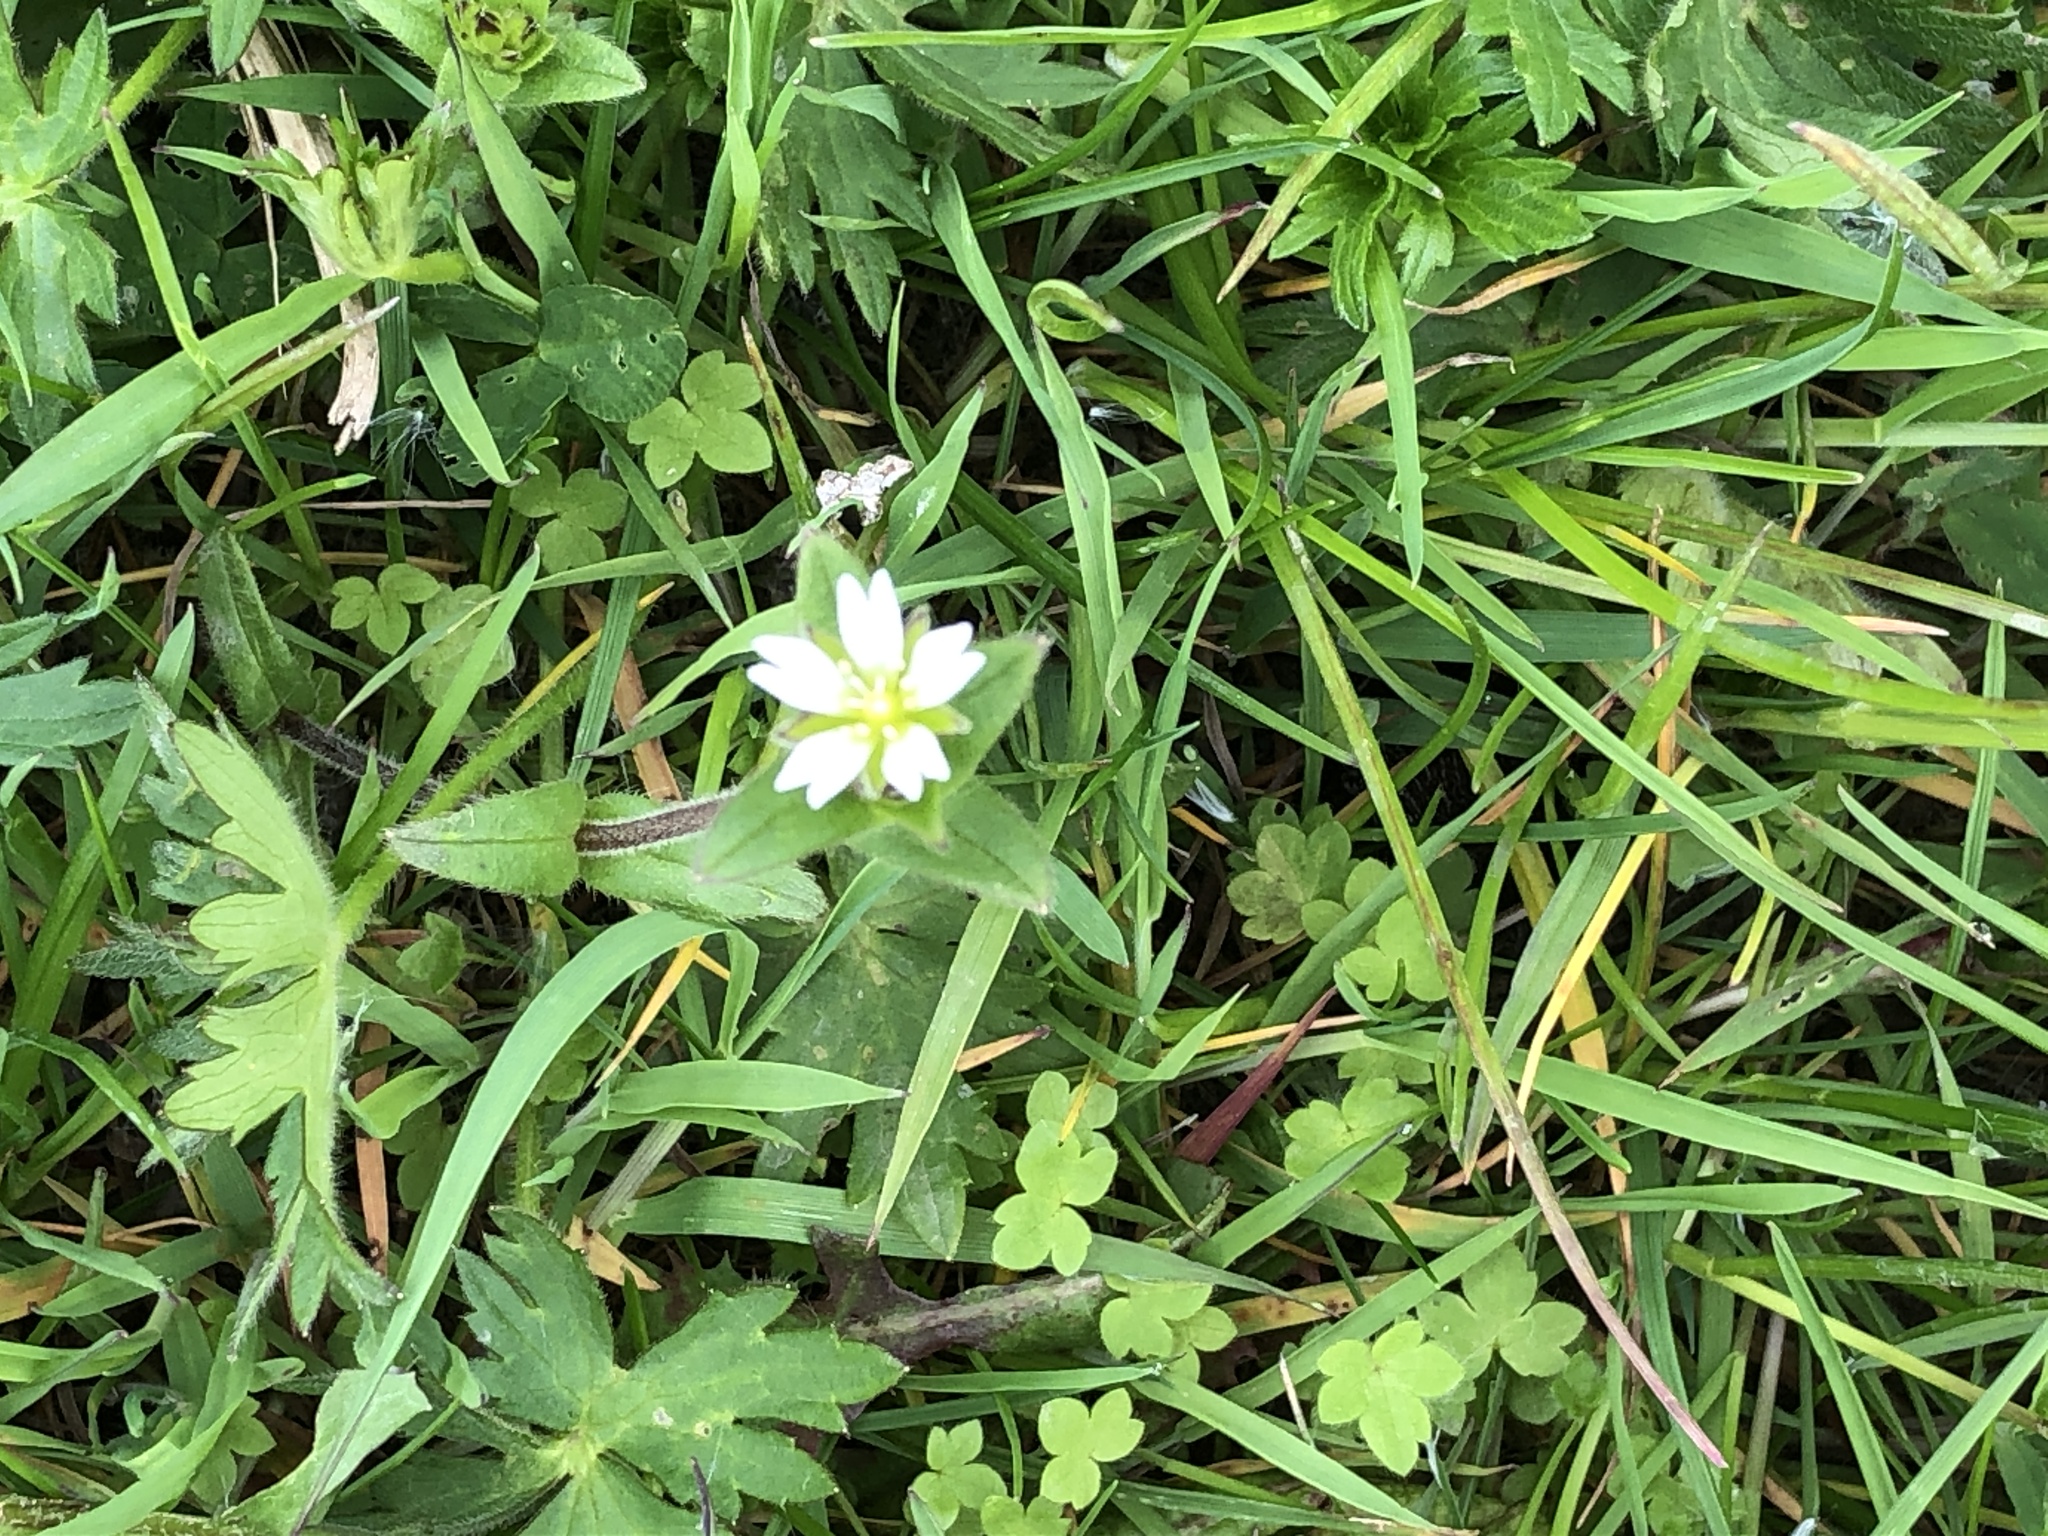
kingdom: Plantae
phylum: Tracheophyta
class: Magnoliopsida
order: Caryophyllales
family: Caryophyllaceae
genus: Cerastium
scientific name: Cerastium fontanum
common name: Common mouse-ear
